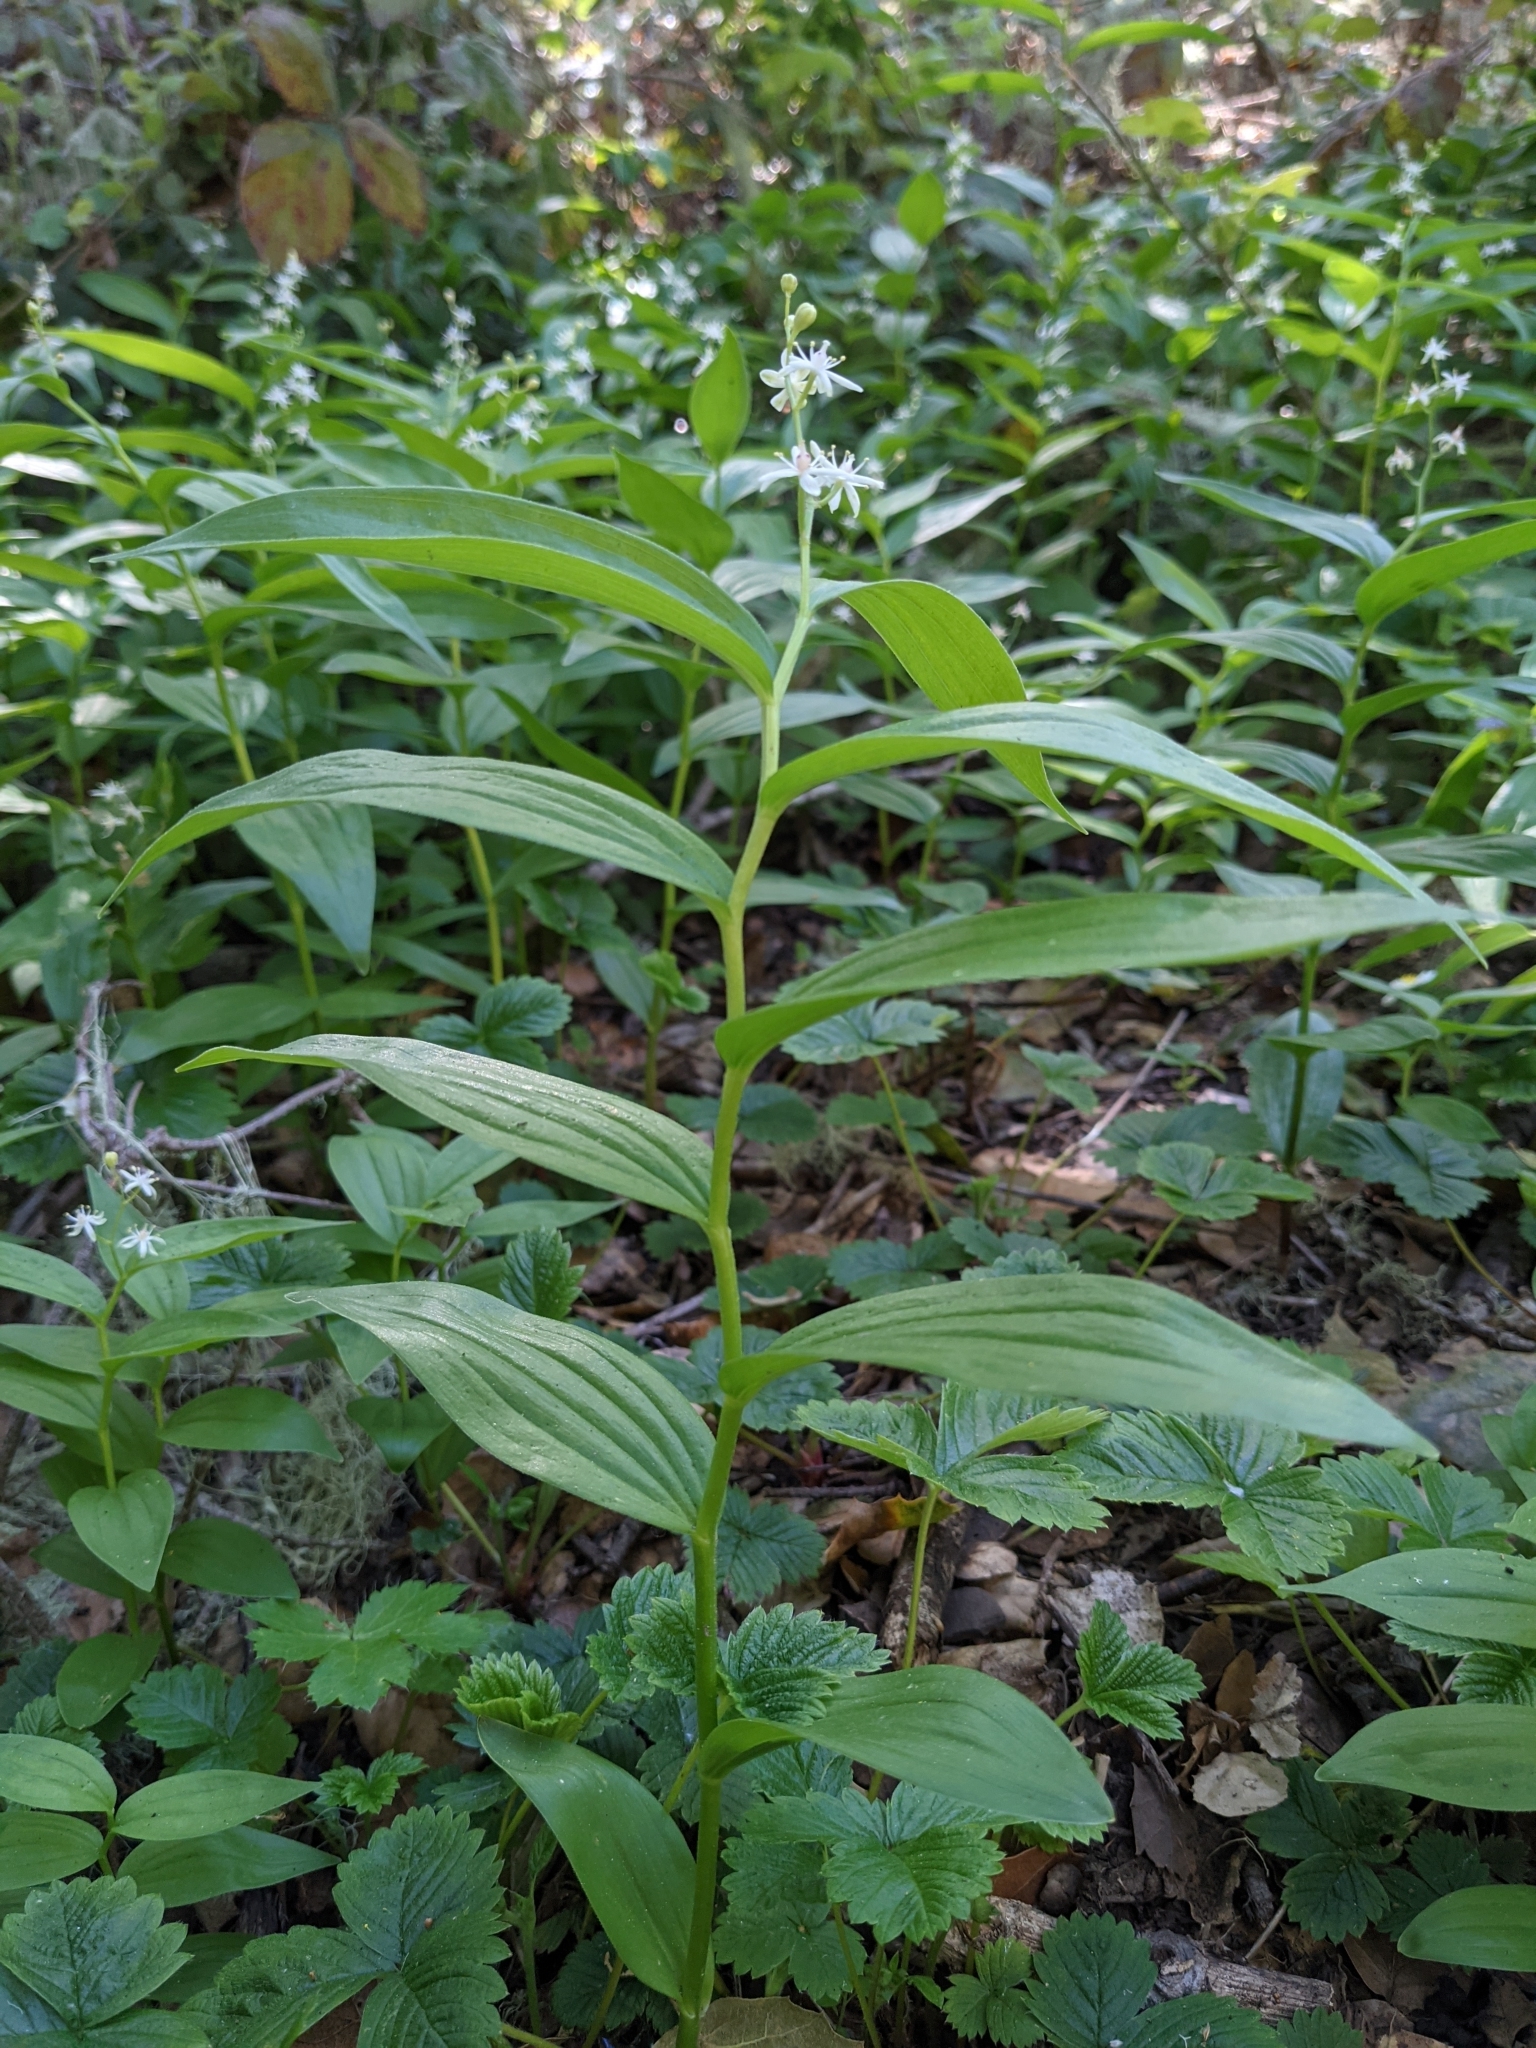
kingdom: Plantae
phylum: Tracheophyta
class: Liliopsida
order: Asparagales
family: Asparagaceae
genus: Maianthemum
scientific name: Maianthemum stellatum
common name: Little false solomon's seal
